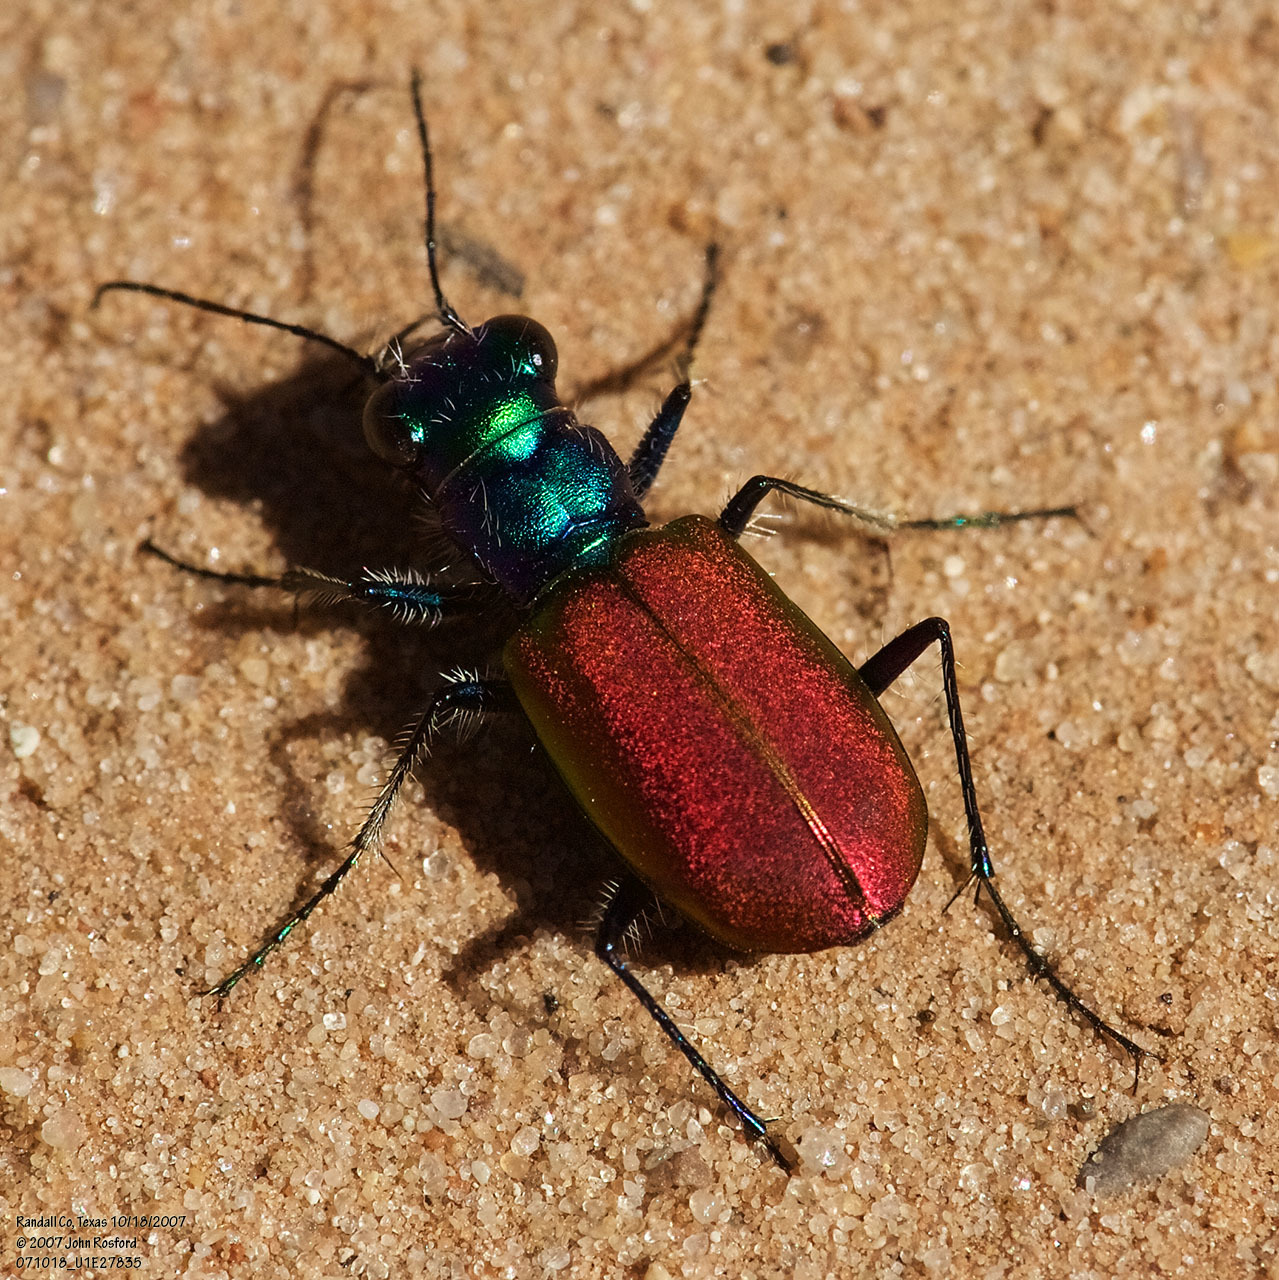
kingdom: Animalia
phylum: Arthropoda
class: Insecta
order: Coleoptera
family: Carabidae
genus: Cicindela
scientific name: Cicindela scutellaris
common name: Festive tiger beetle
